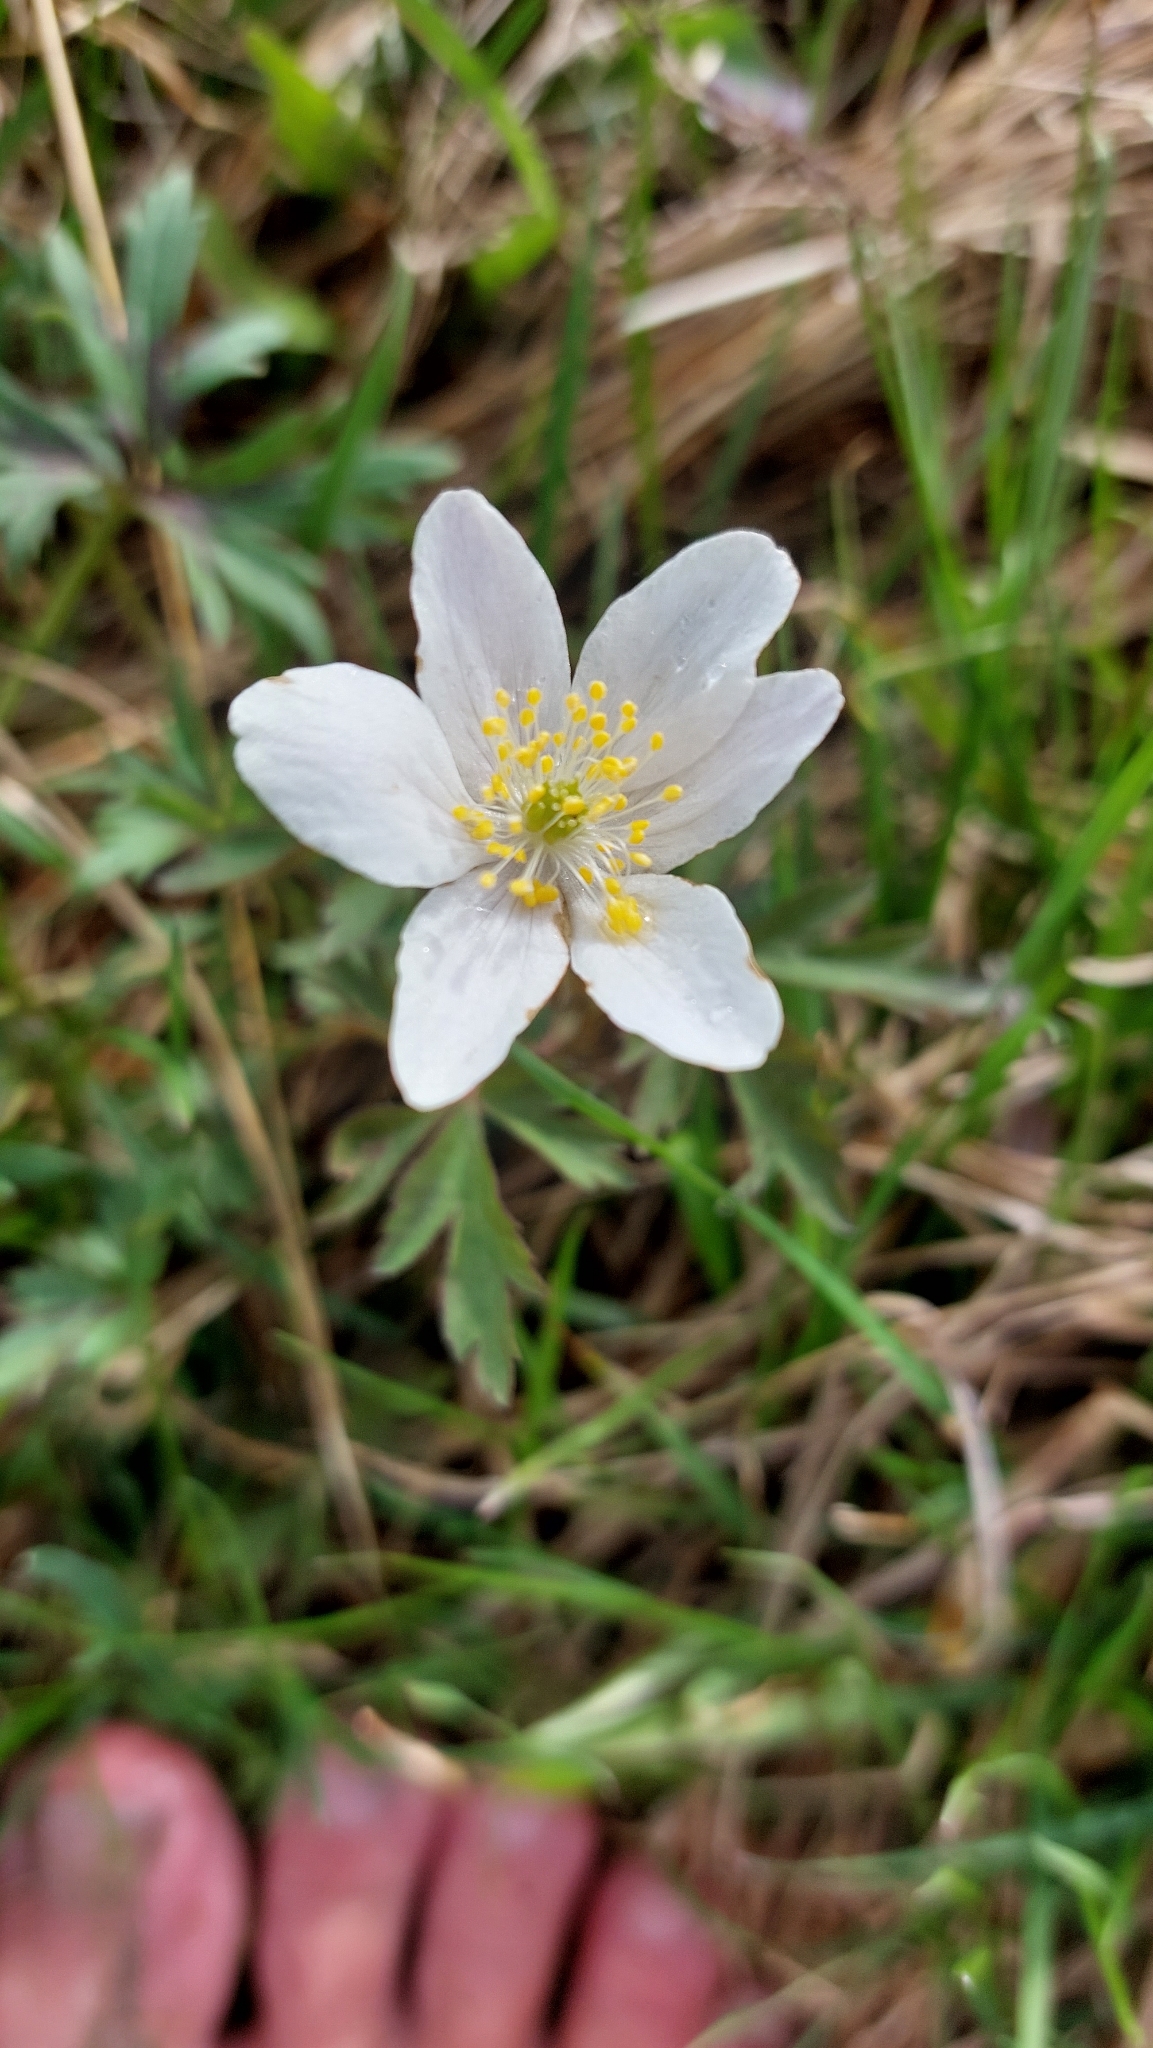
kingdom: Plantae
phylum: Tracheophyta
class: Magnoliopsida
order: Ranunculales
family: Ranunculaceae
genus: Anemone
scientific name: Anemone nemorosa
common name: Wood anemone
